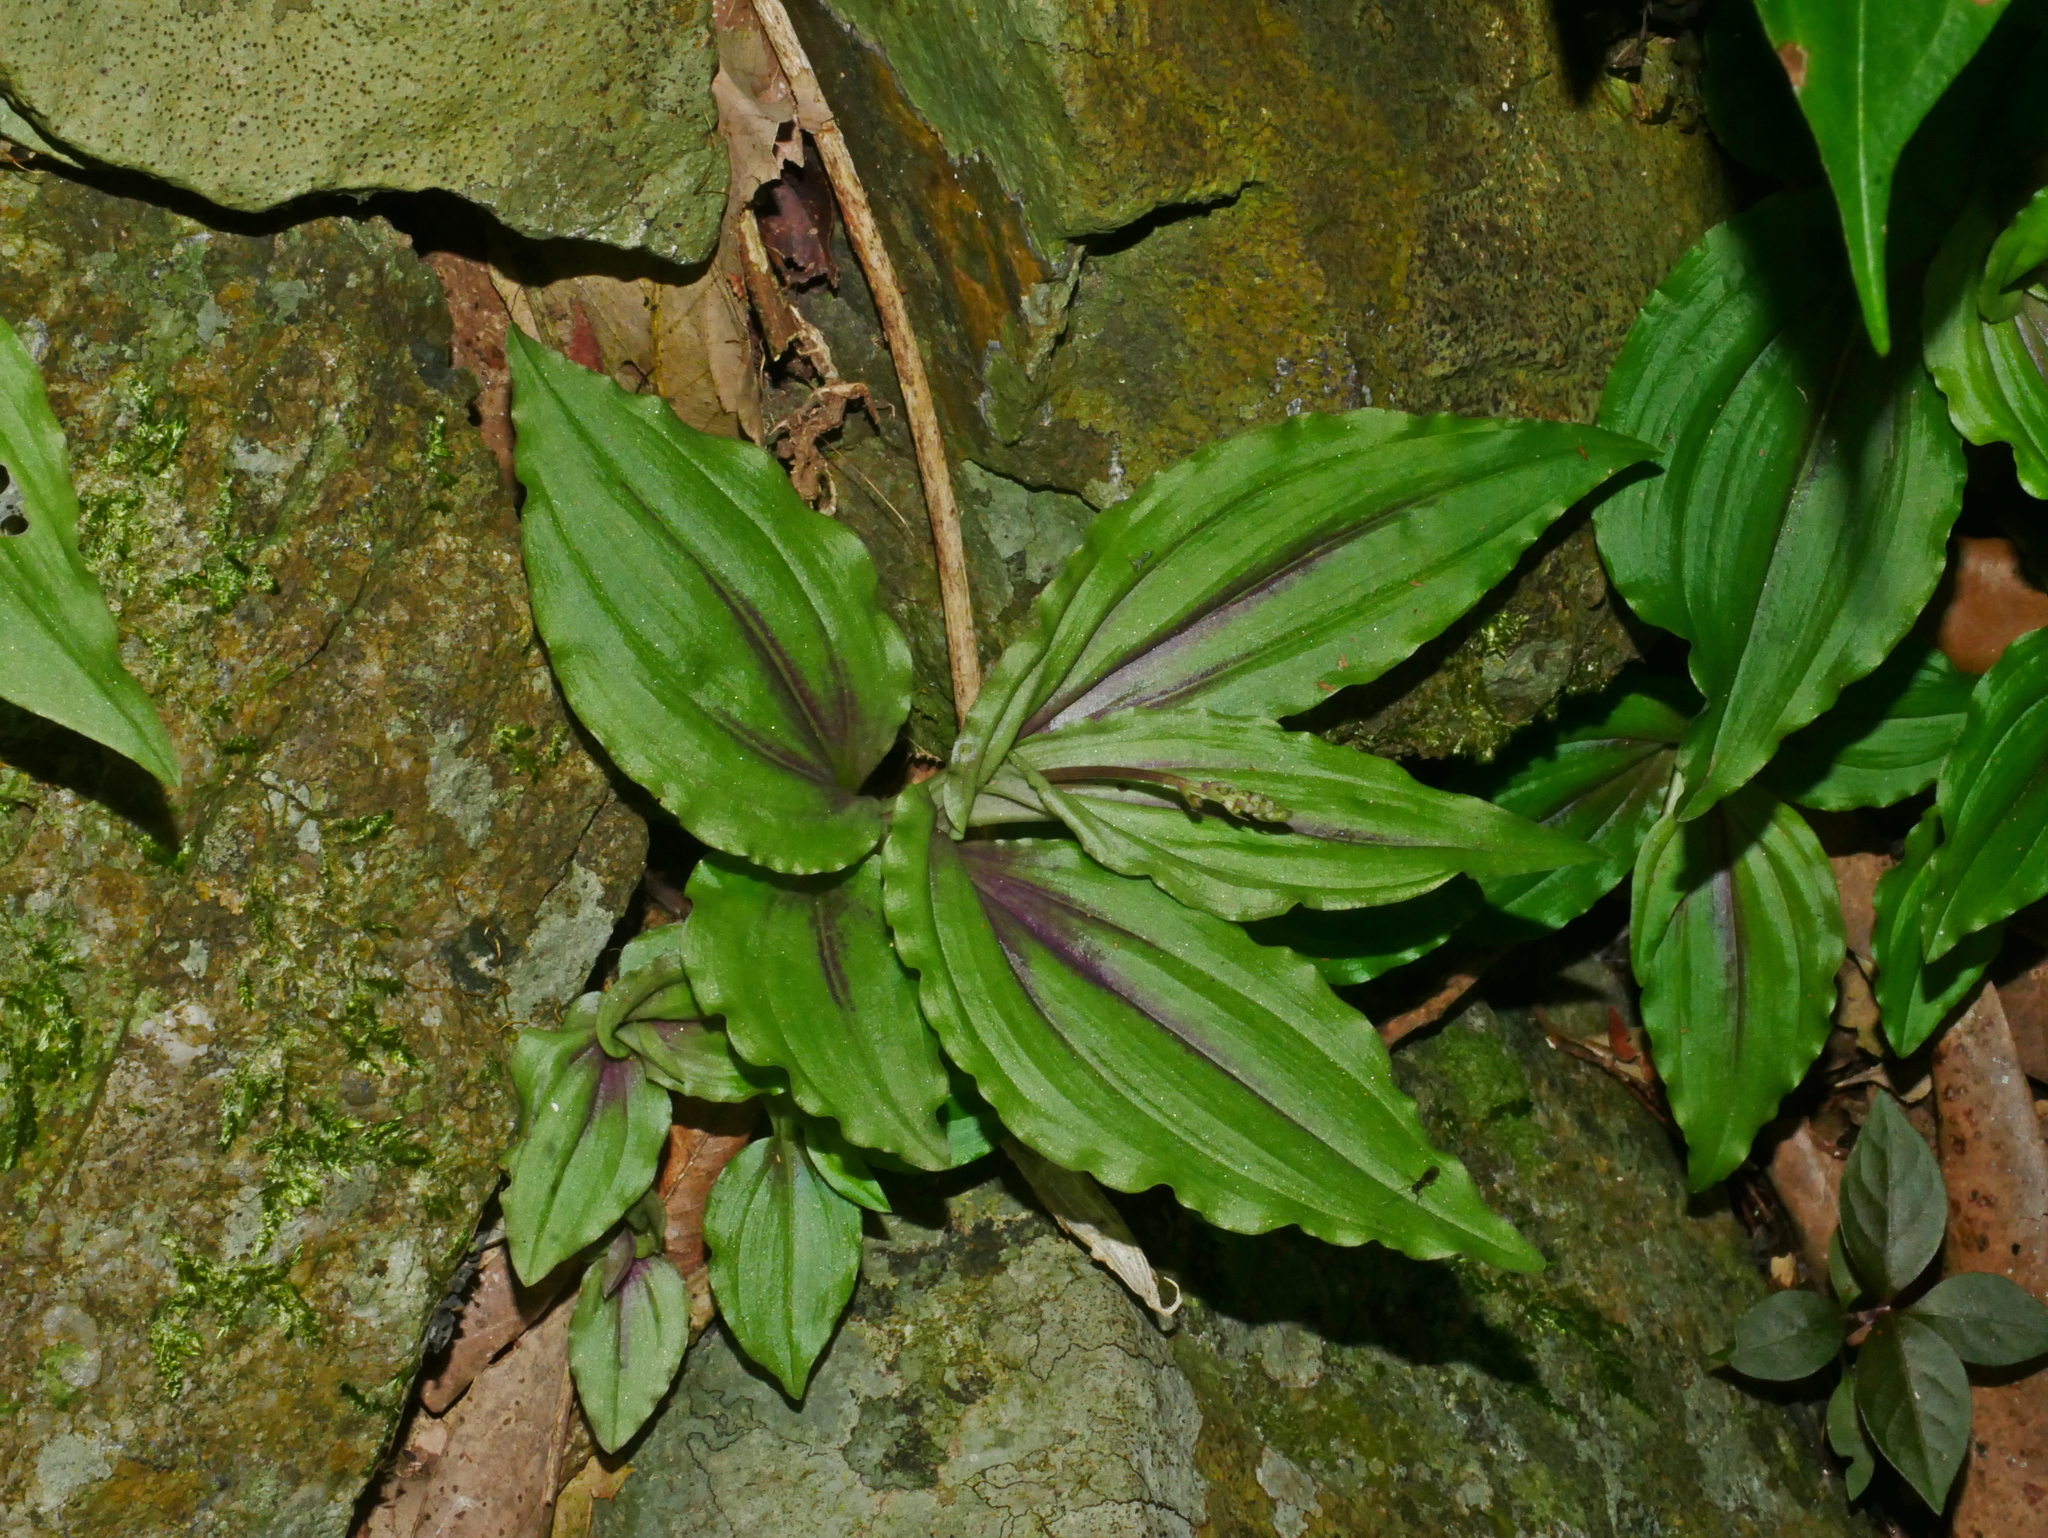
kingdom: Plantae
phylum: Tracheophyta
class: Liliopsida
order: Asparagales
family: Orchidaceae
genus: Crepidium
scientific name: Crepidium matsudae
